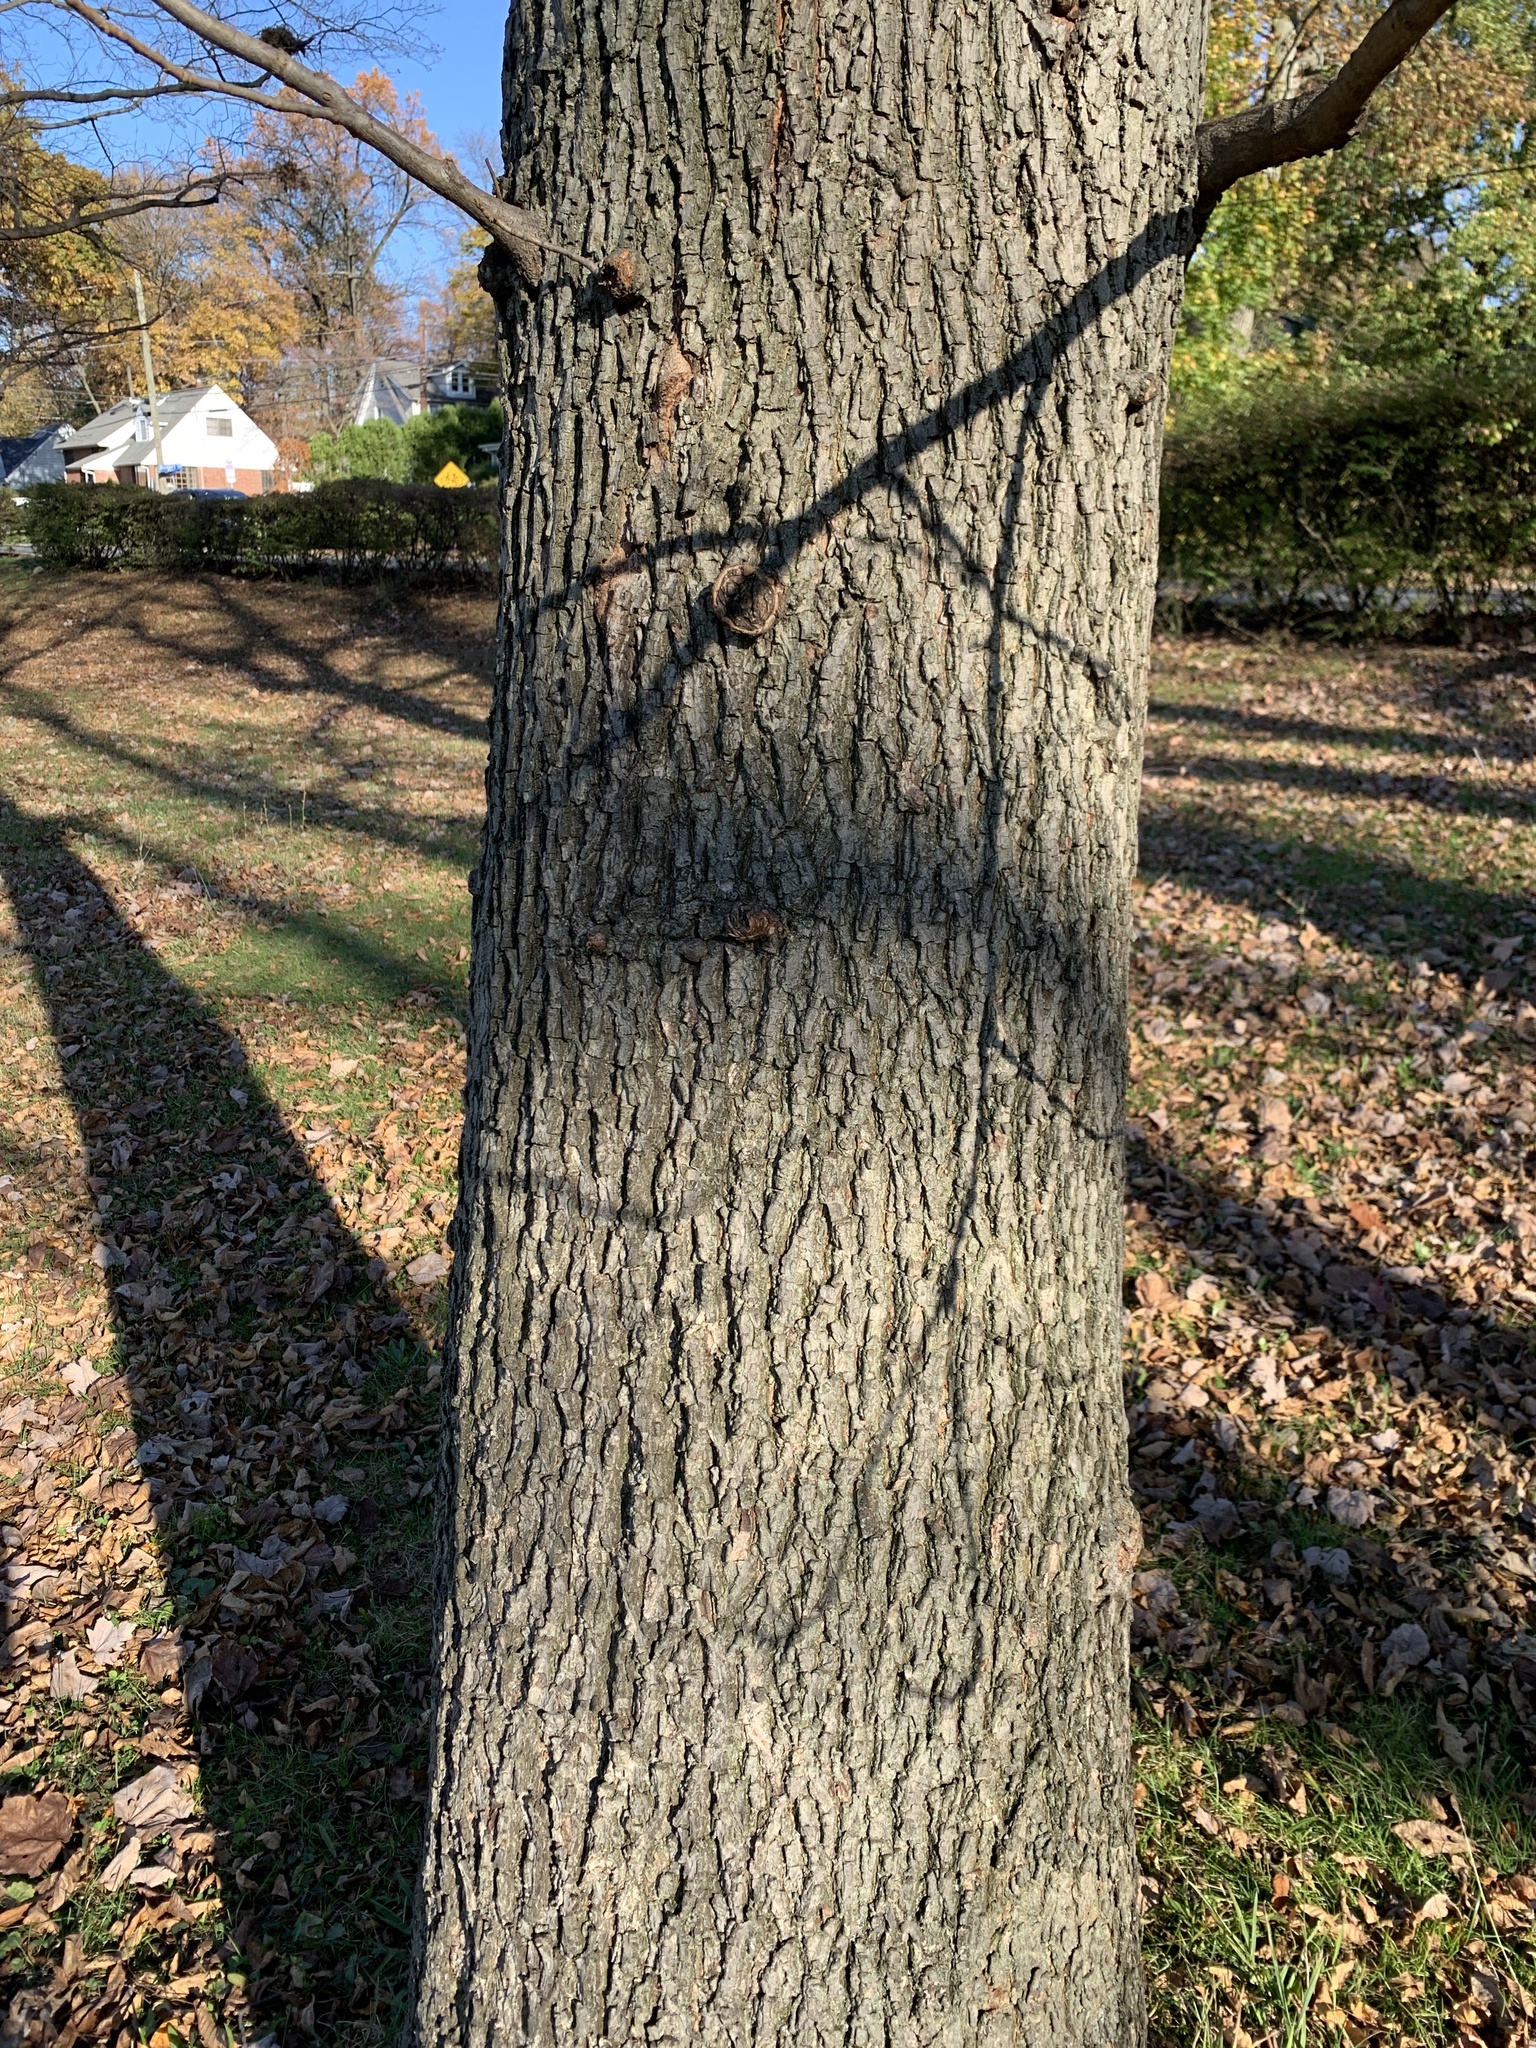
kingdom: Plantae
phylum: Tracheophyta
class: Magnoliopsida
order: Fagales
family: Juglandaceae
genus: Carya
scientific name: Carya cordiformis
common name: Bitternut hickory
